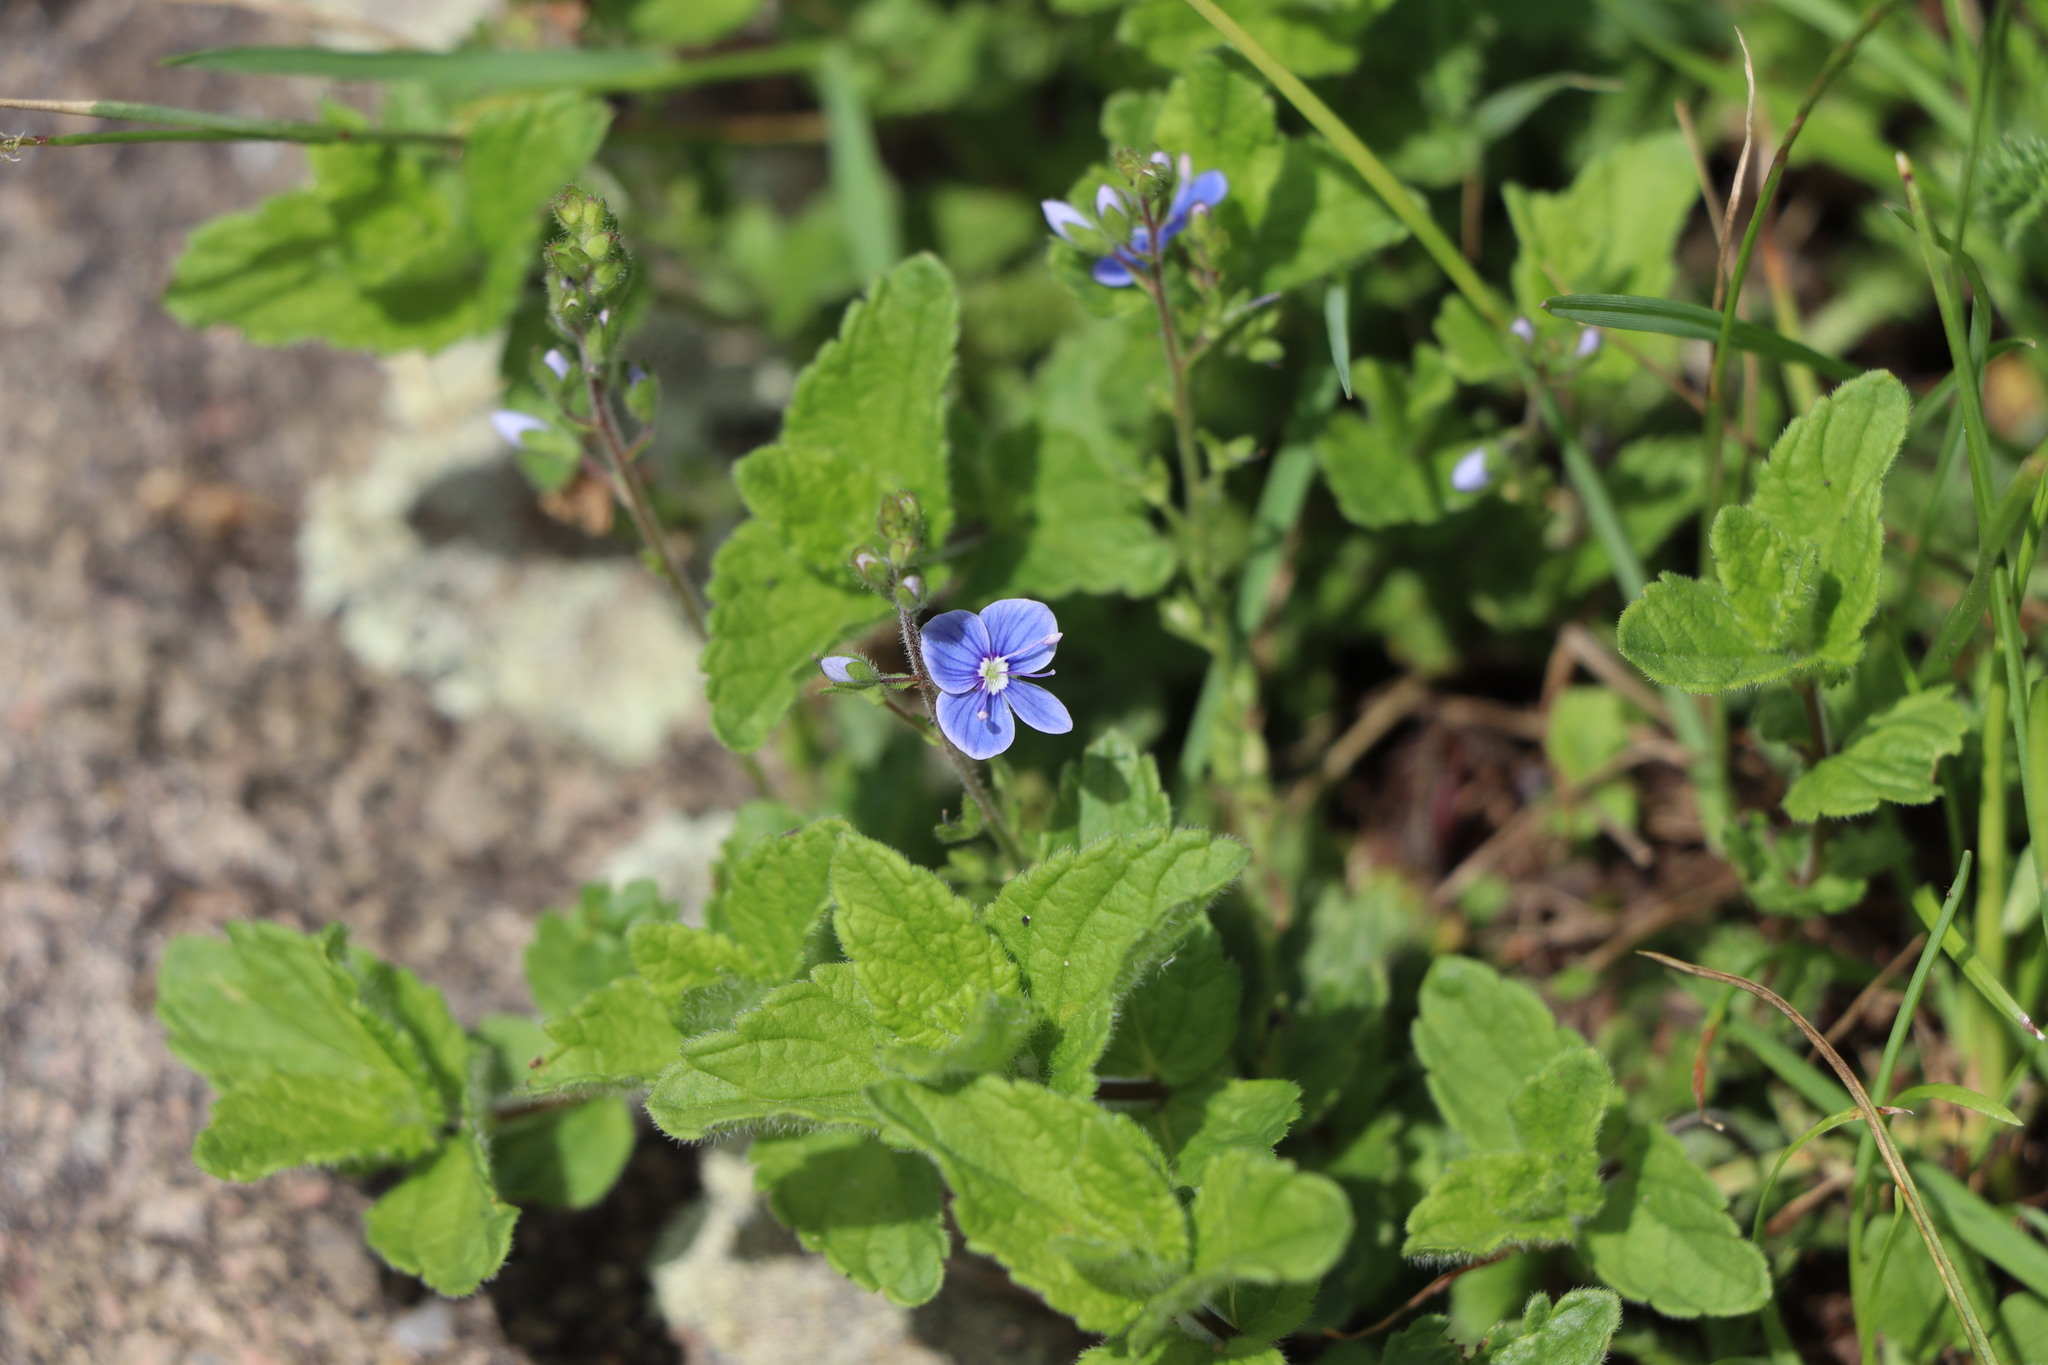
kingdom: Plantae
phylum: Tracheophyta
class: Magnoliopsida
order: Lamiales
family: Plantaginaceae
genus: Veronica
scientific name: Veronica chamaedrys
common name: Germander speedwell
